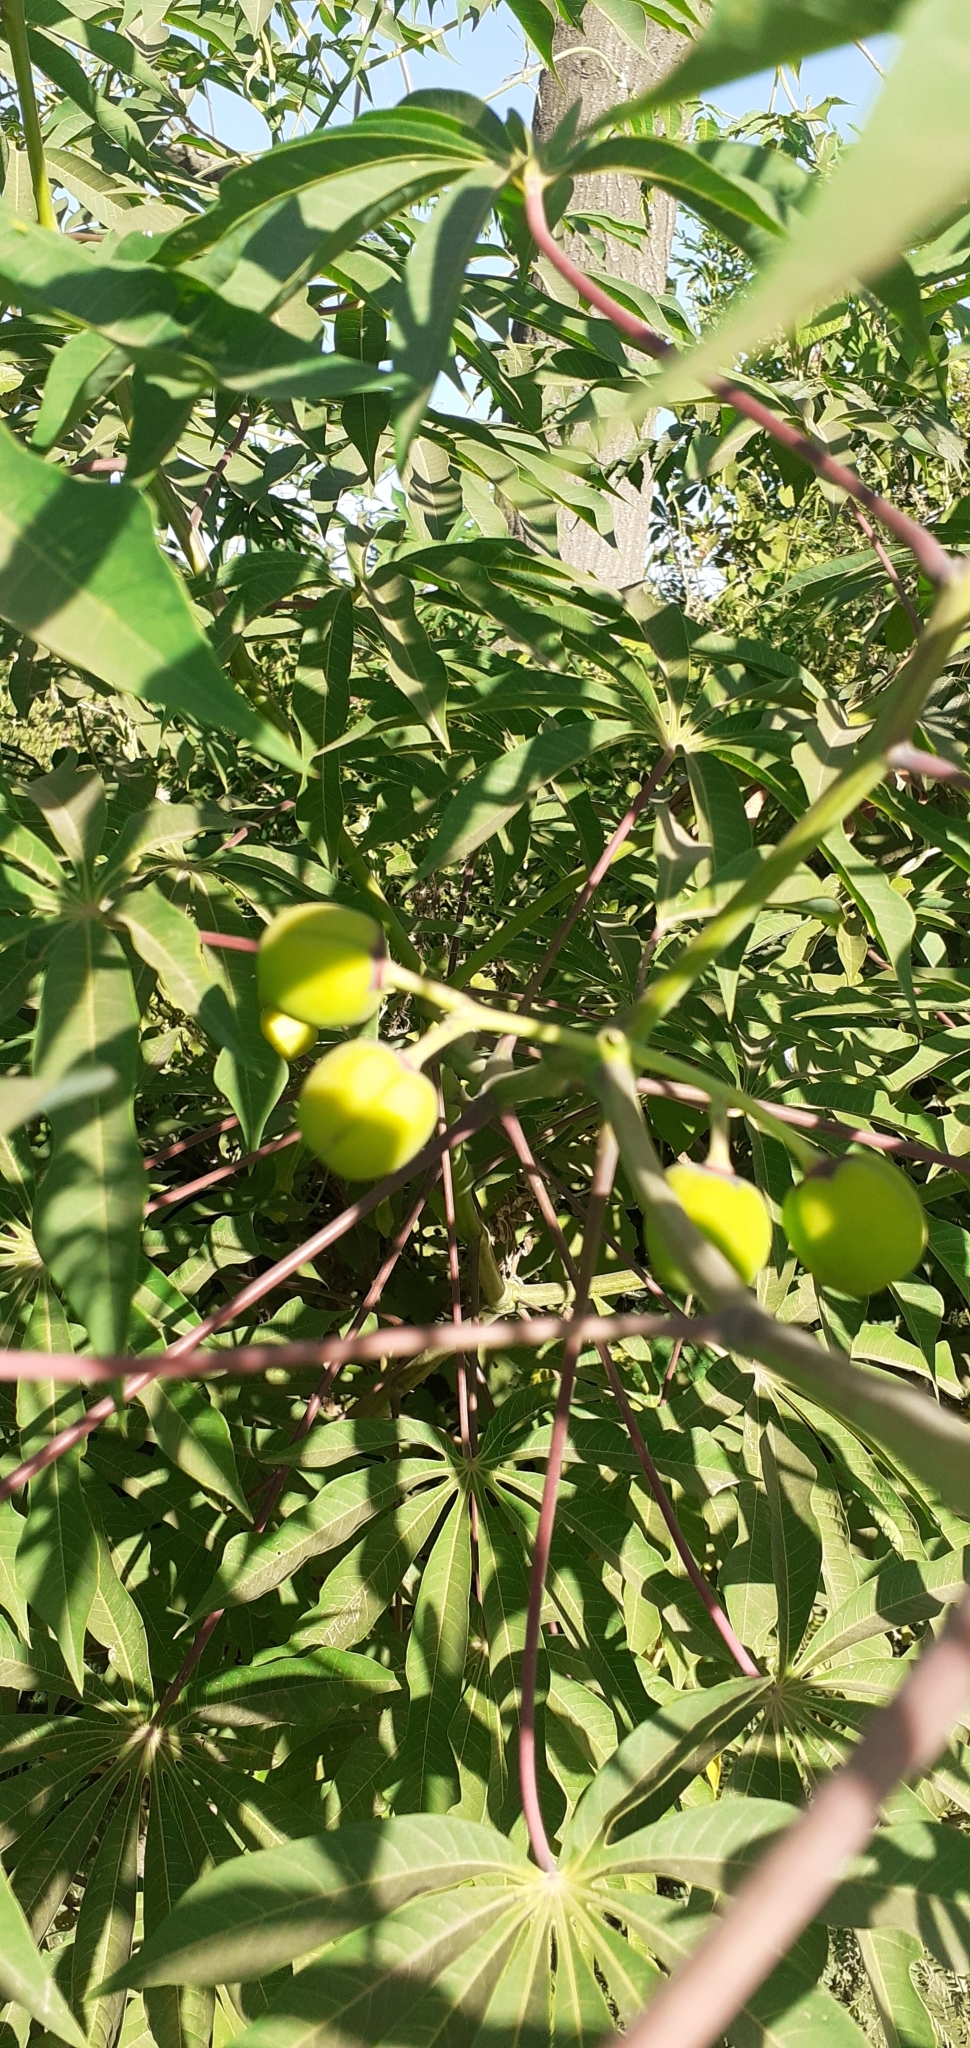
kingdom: Plantae
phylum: Tracheophyta
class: Magnoliopsida
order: Malpighiales
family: Euphorbiaceae
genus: Manihot
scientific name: Manihot grahamii
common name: Graham's manihot
